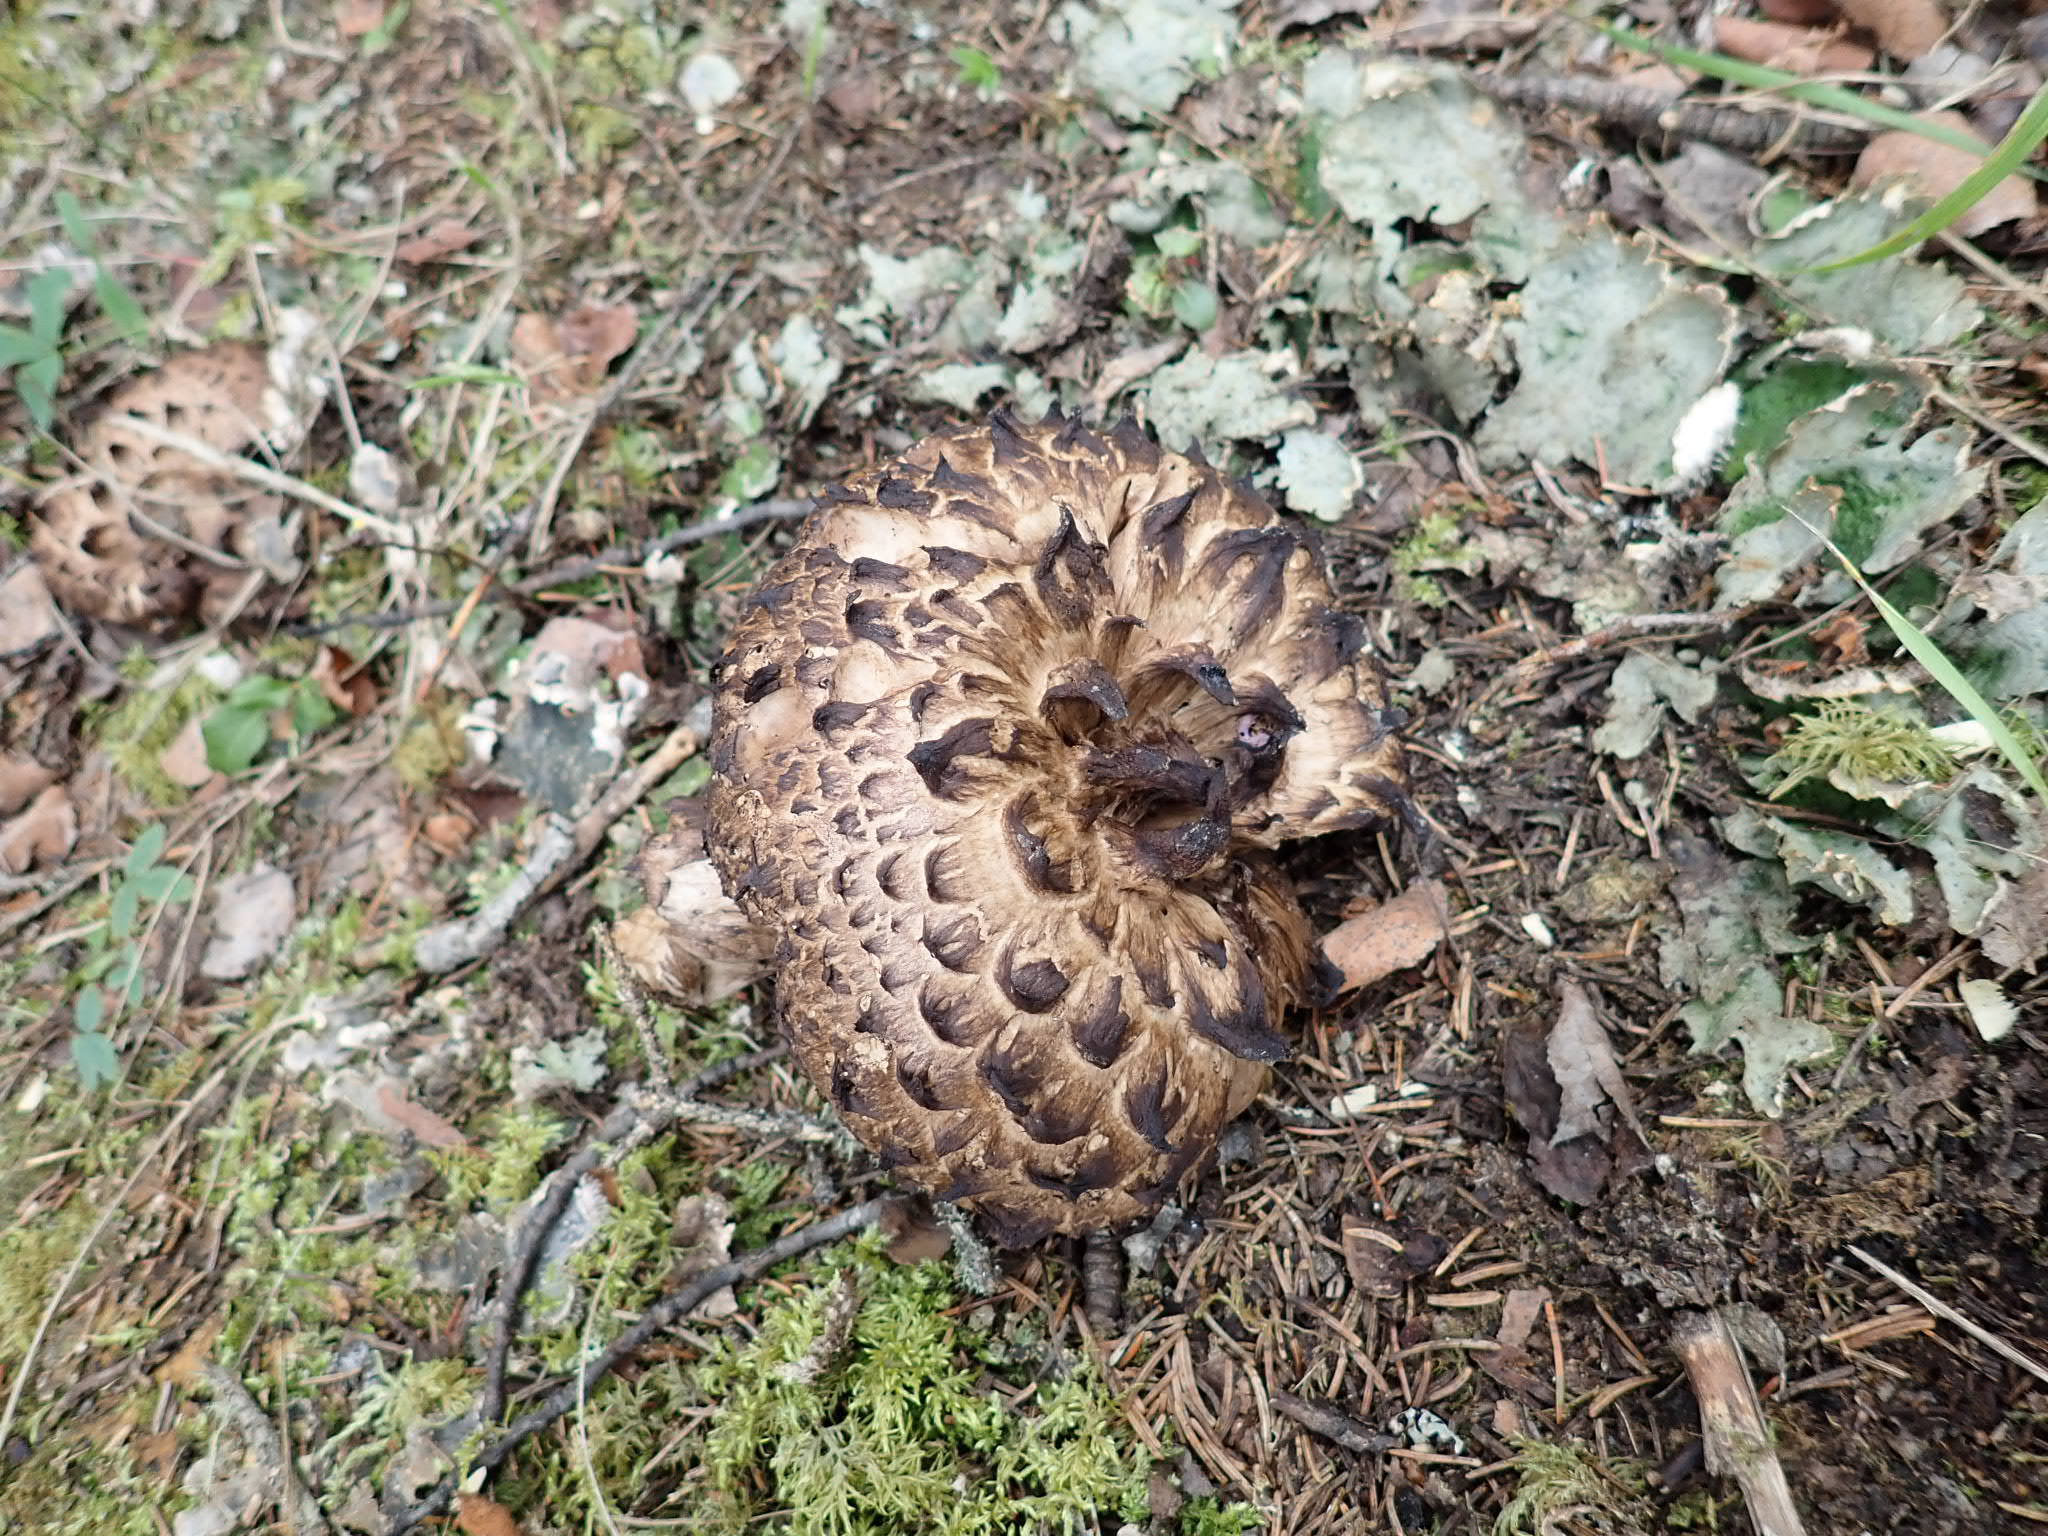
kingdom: Fungi
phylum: Basidiomycota
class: Agaricomycetes
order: Thelephorales
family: Bankeraceae
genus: Sarcodon
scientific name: Sarcodon imbricatus
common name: Shingled hedgehog
